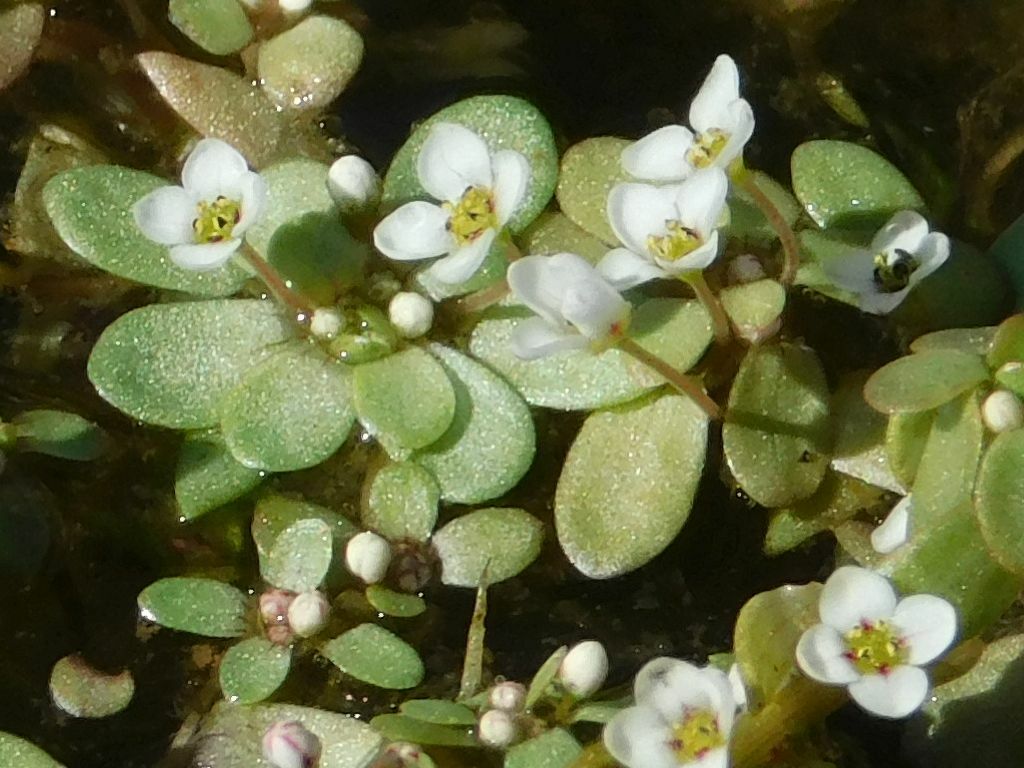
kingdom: Plantae
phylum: Tracheophyta
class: Magnoliopsida
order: Saxifragales
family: Crassulaceae
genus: Crassula
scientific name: Crassula natans
